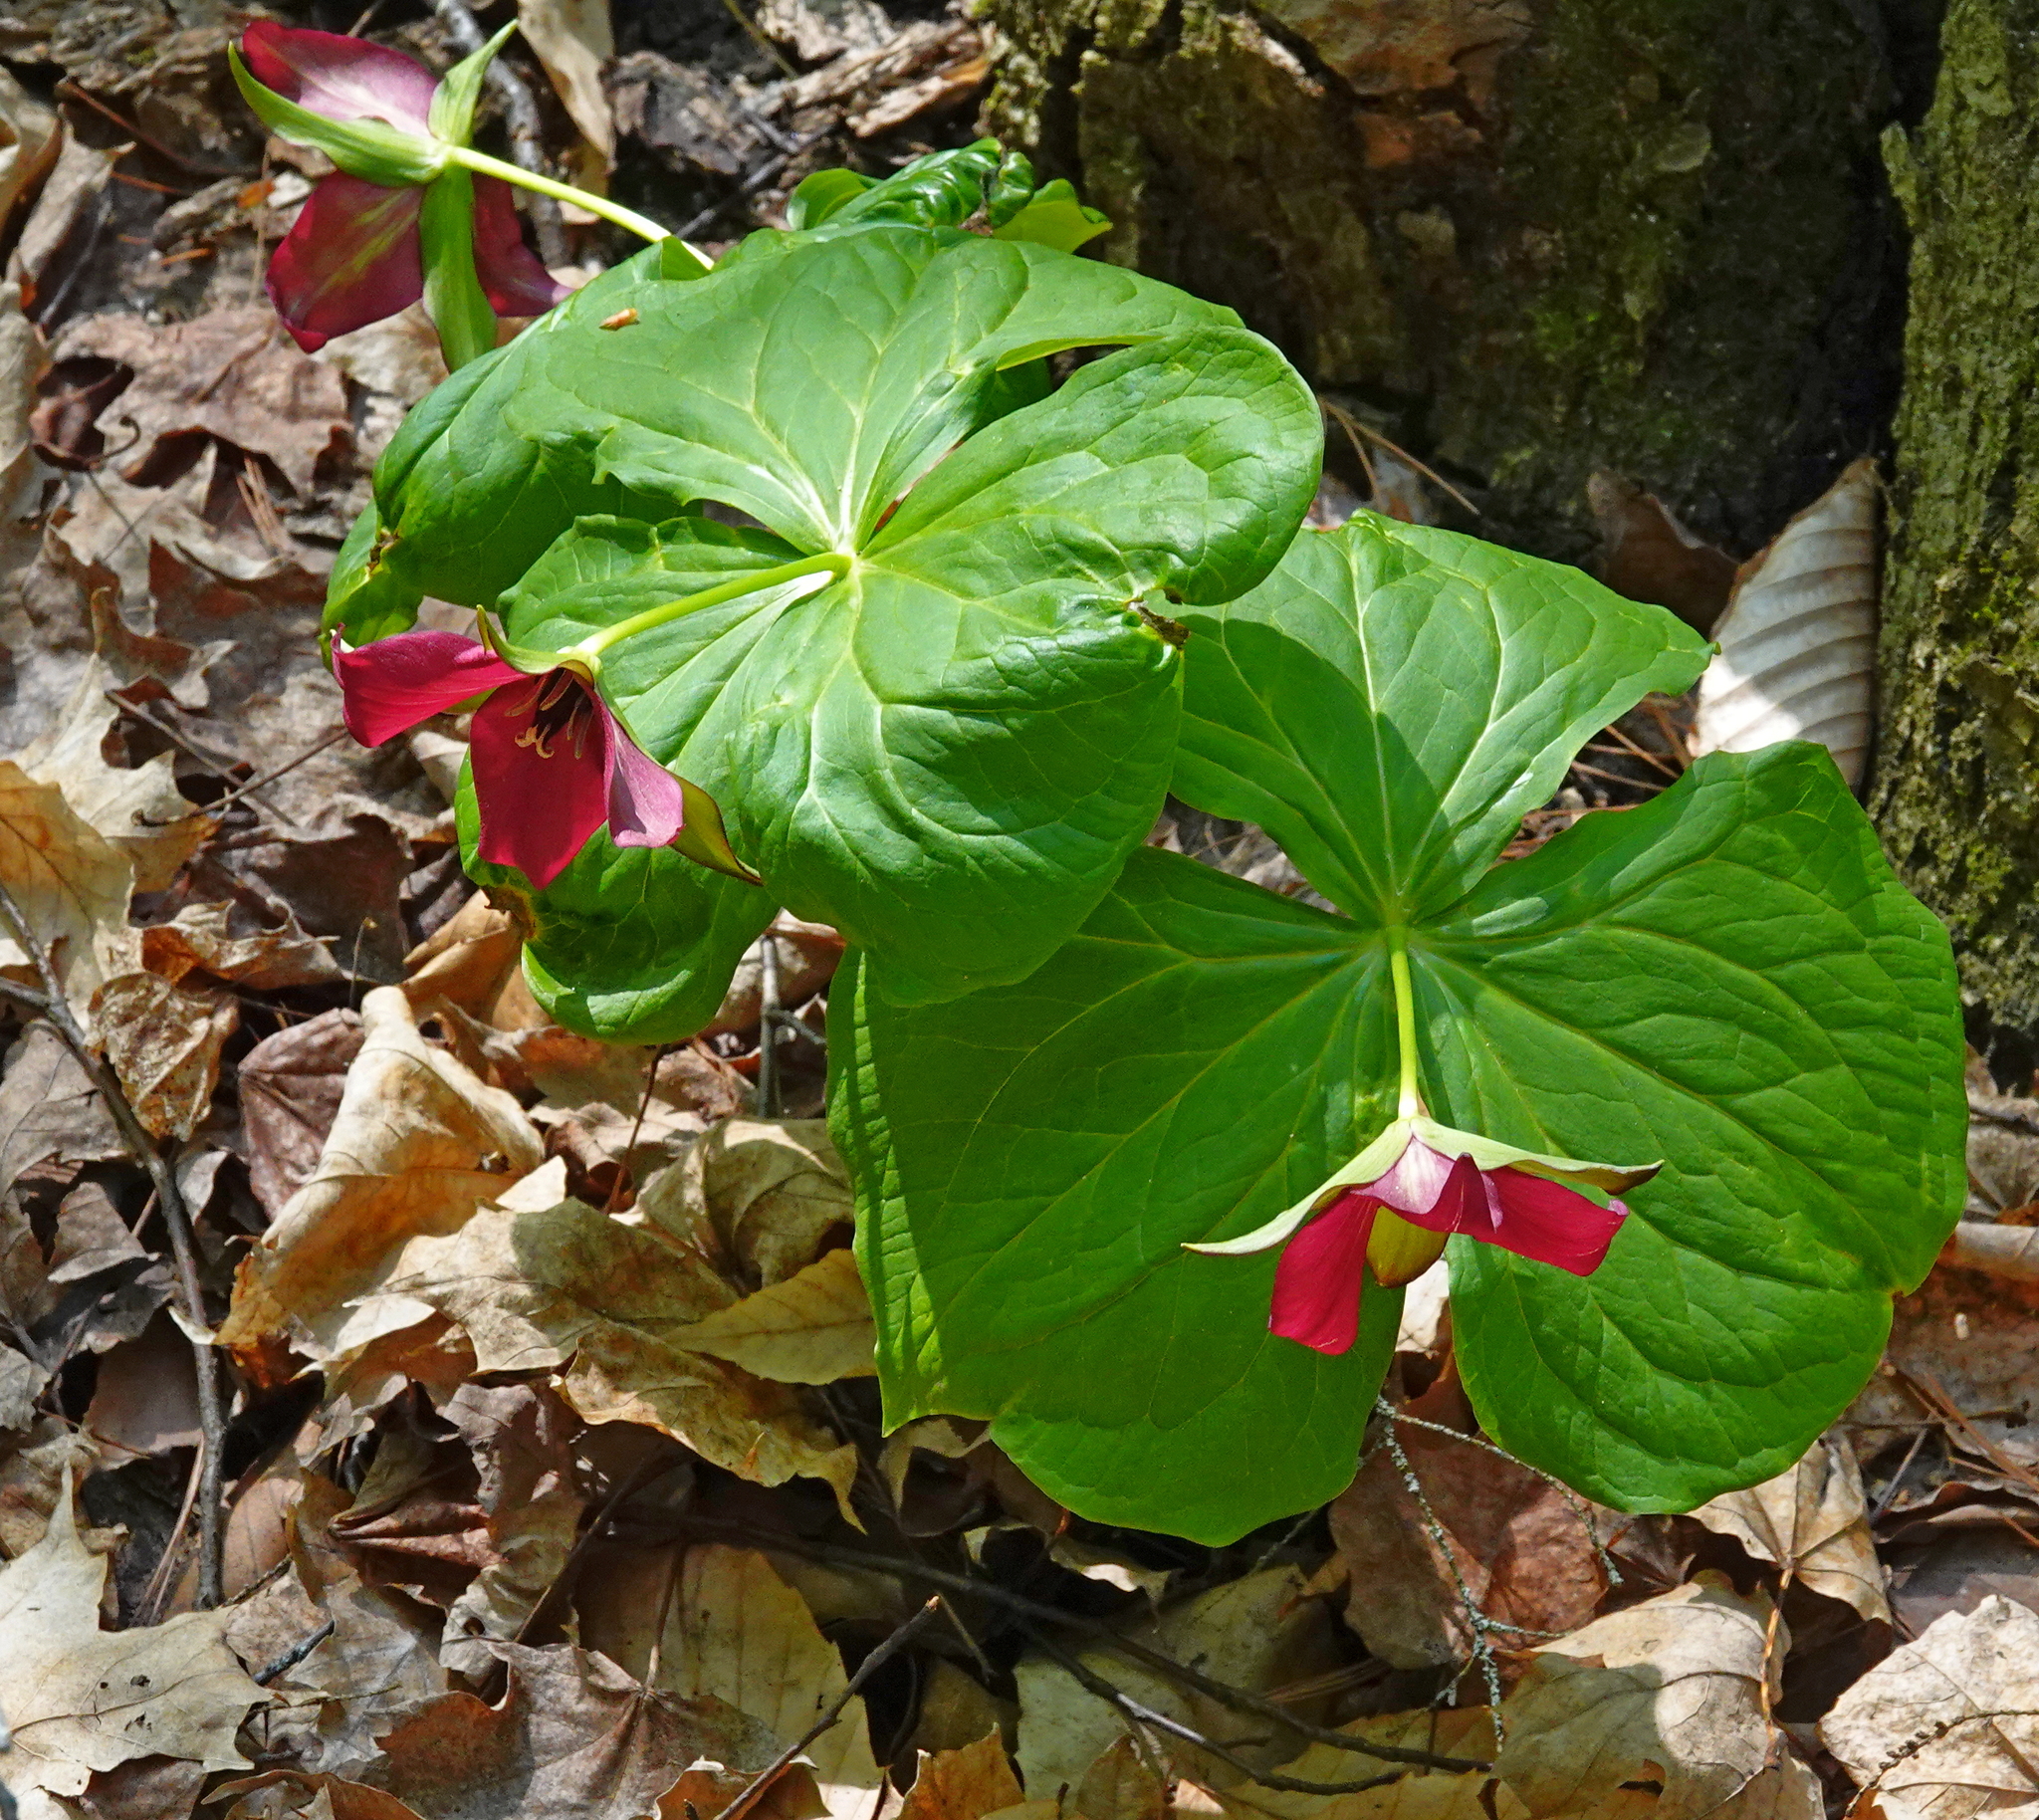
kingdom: Plantae
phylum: Tracheophyta
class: Liliopsida
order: Liliales
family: Melanthiaceae
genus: Trillium
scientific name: Trillium erectum
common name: Purple trillium
